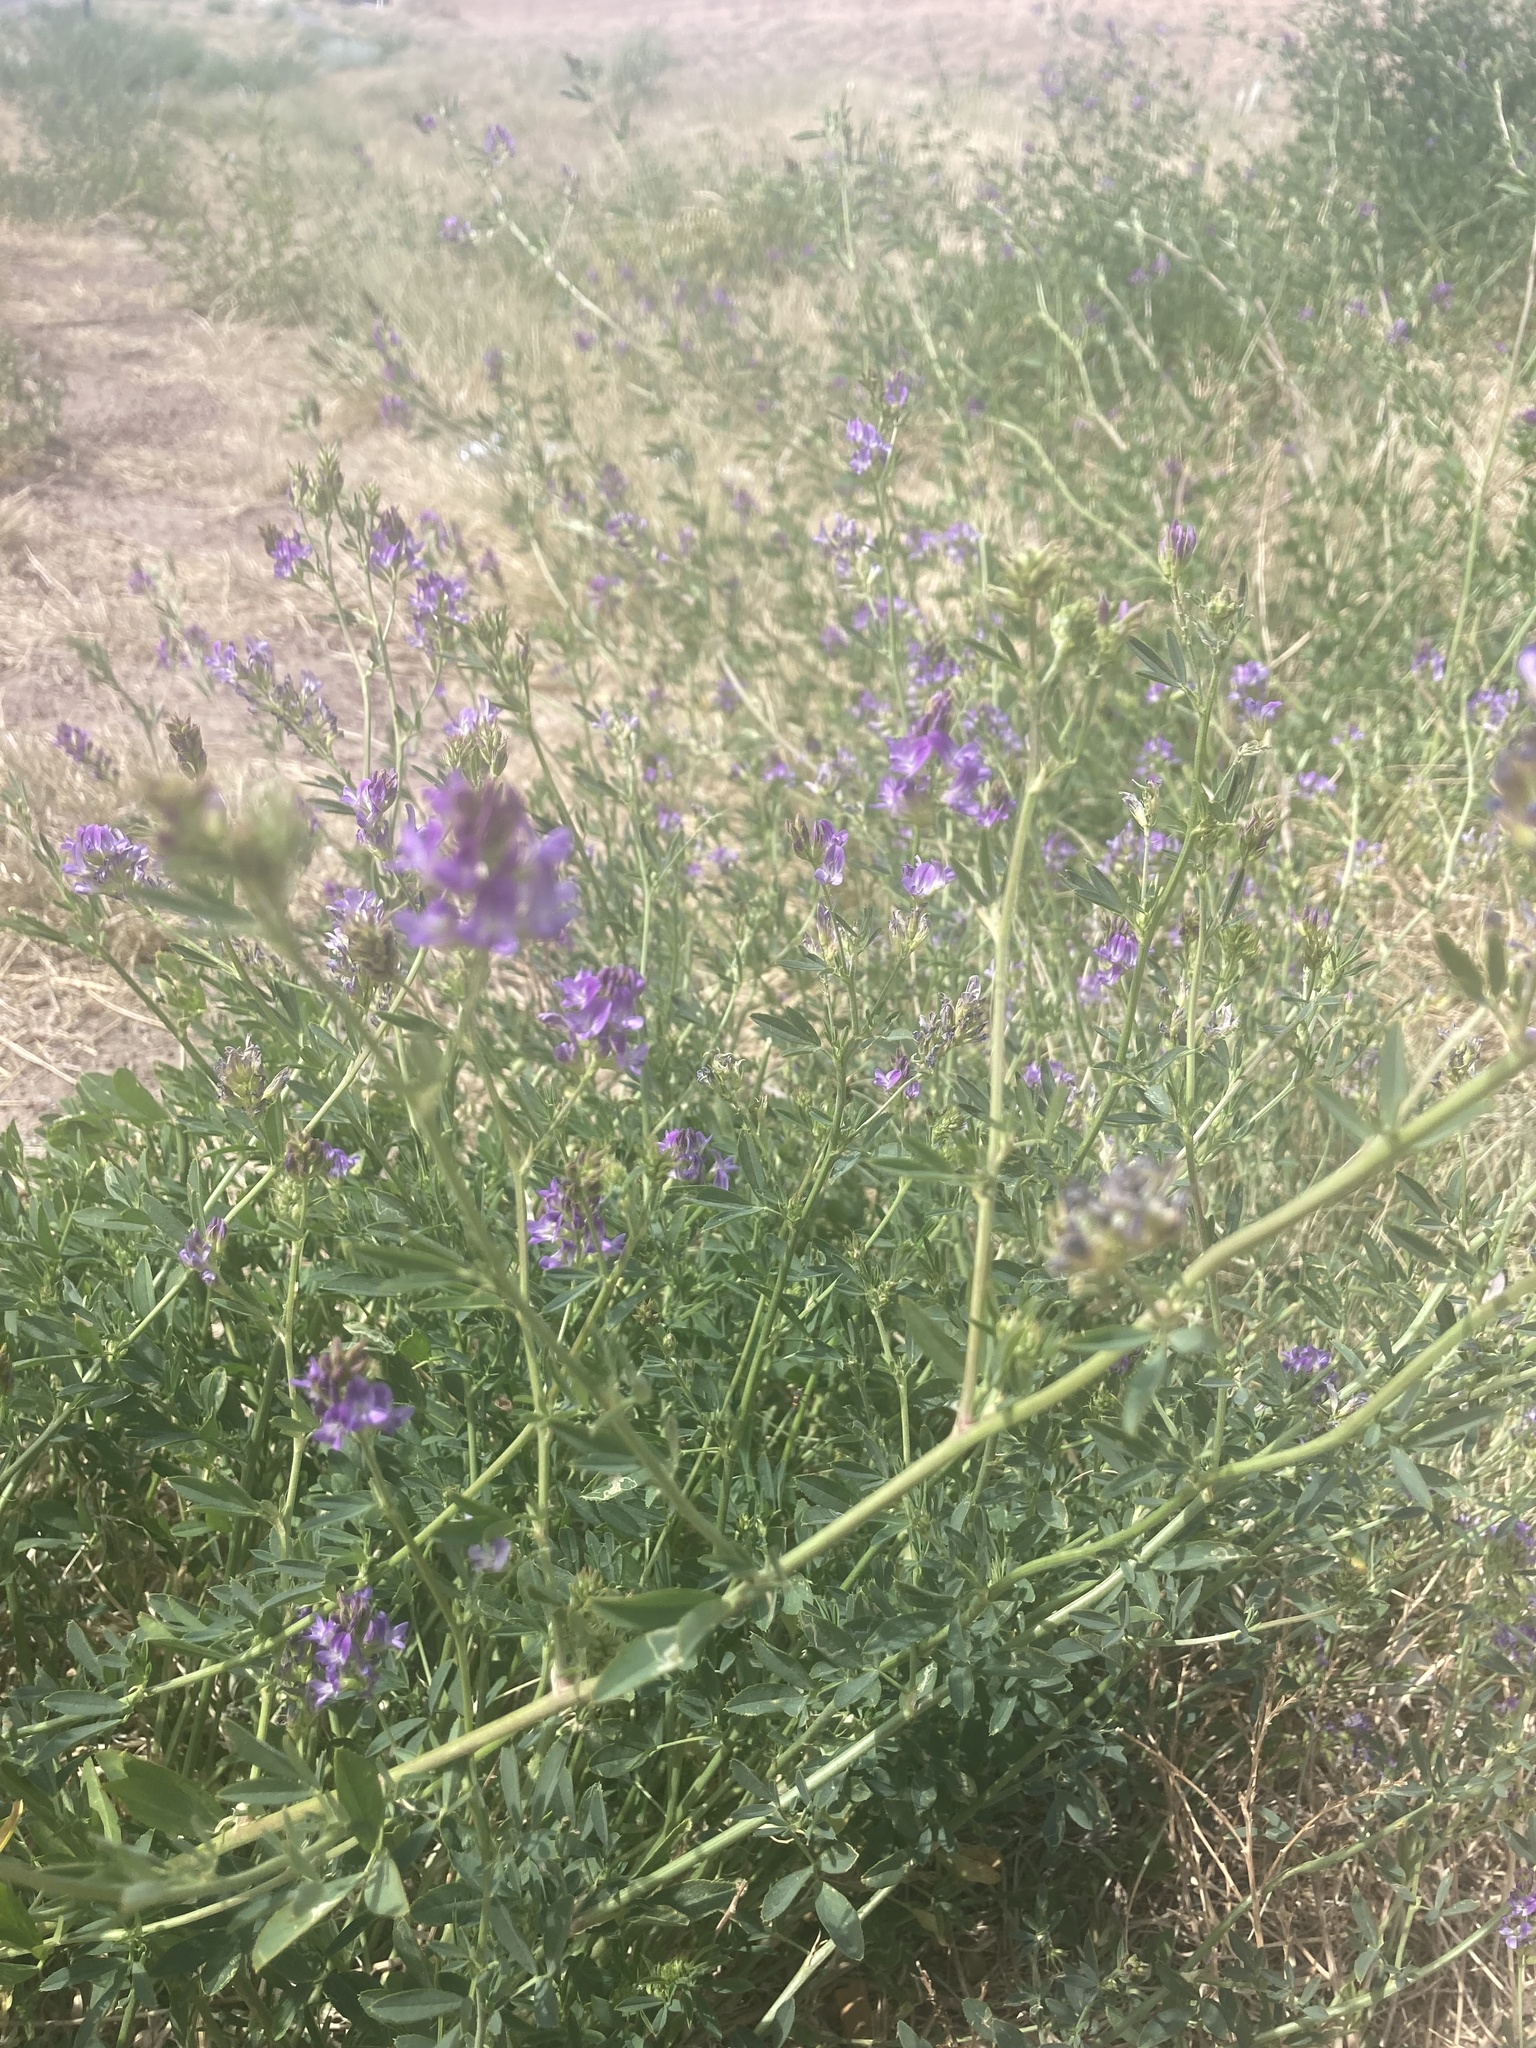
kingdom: Plantae
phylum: Tracheophyta
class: Magnoliopsida
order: Fabales
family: Fabaceae
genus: Medicago
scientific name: Medicago sativa
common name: Alfalfa
